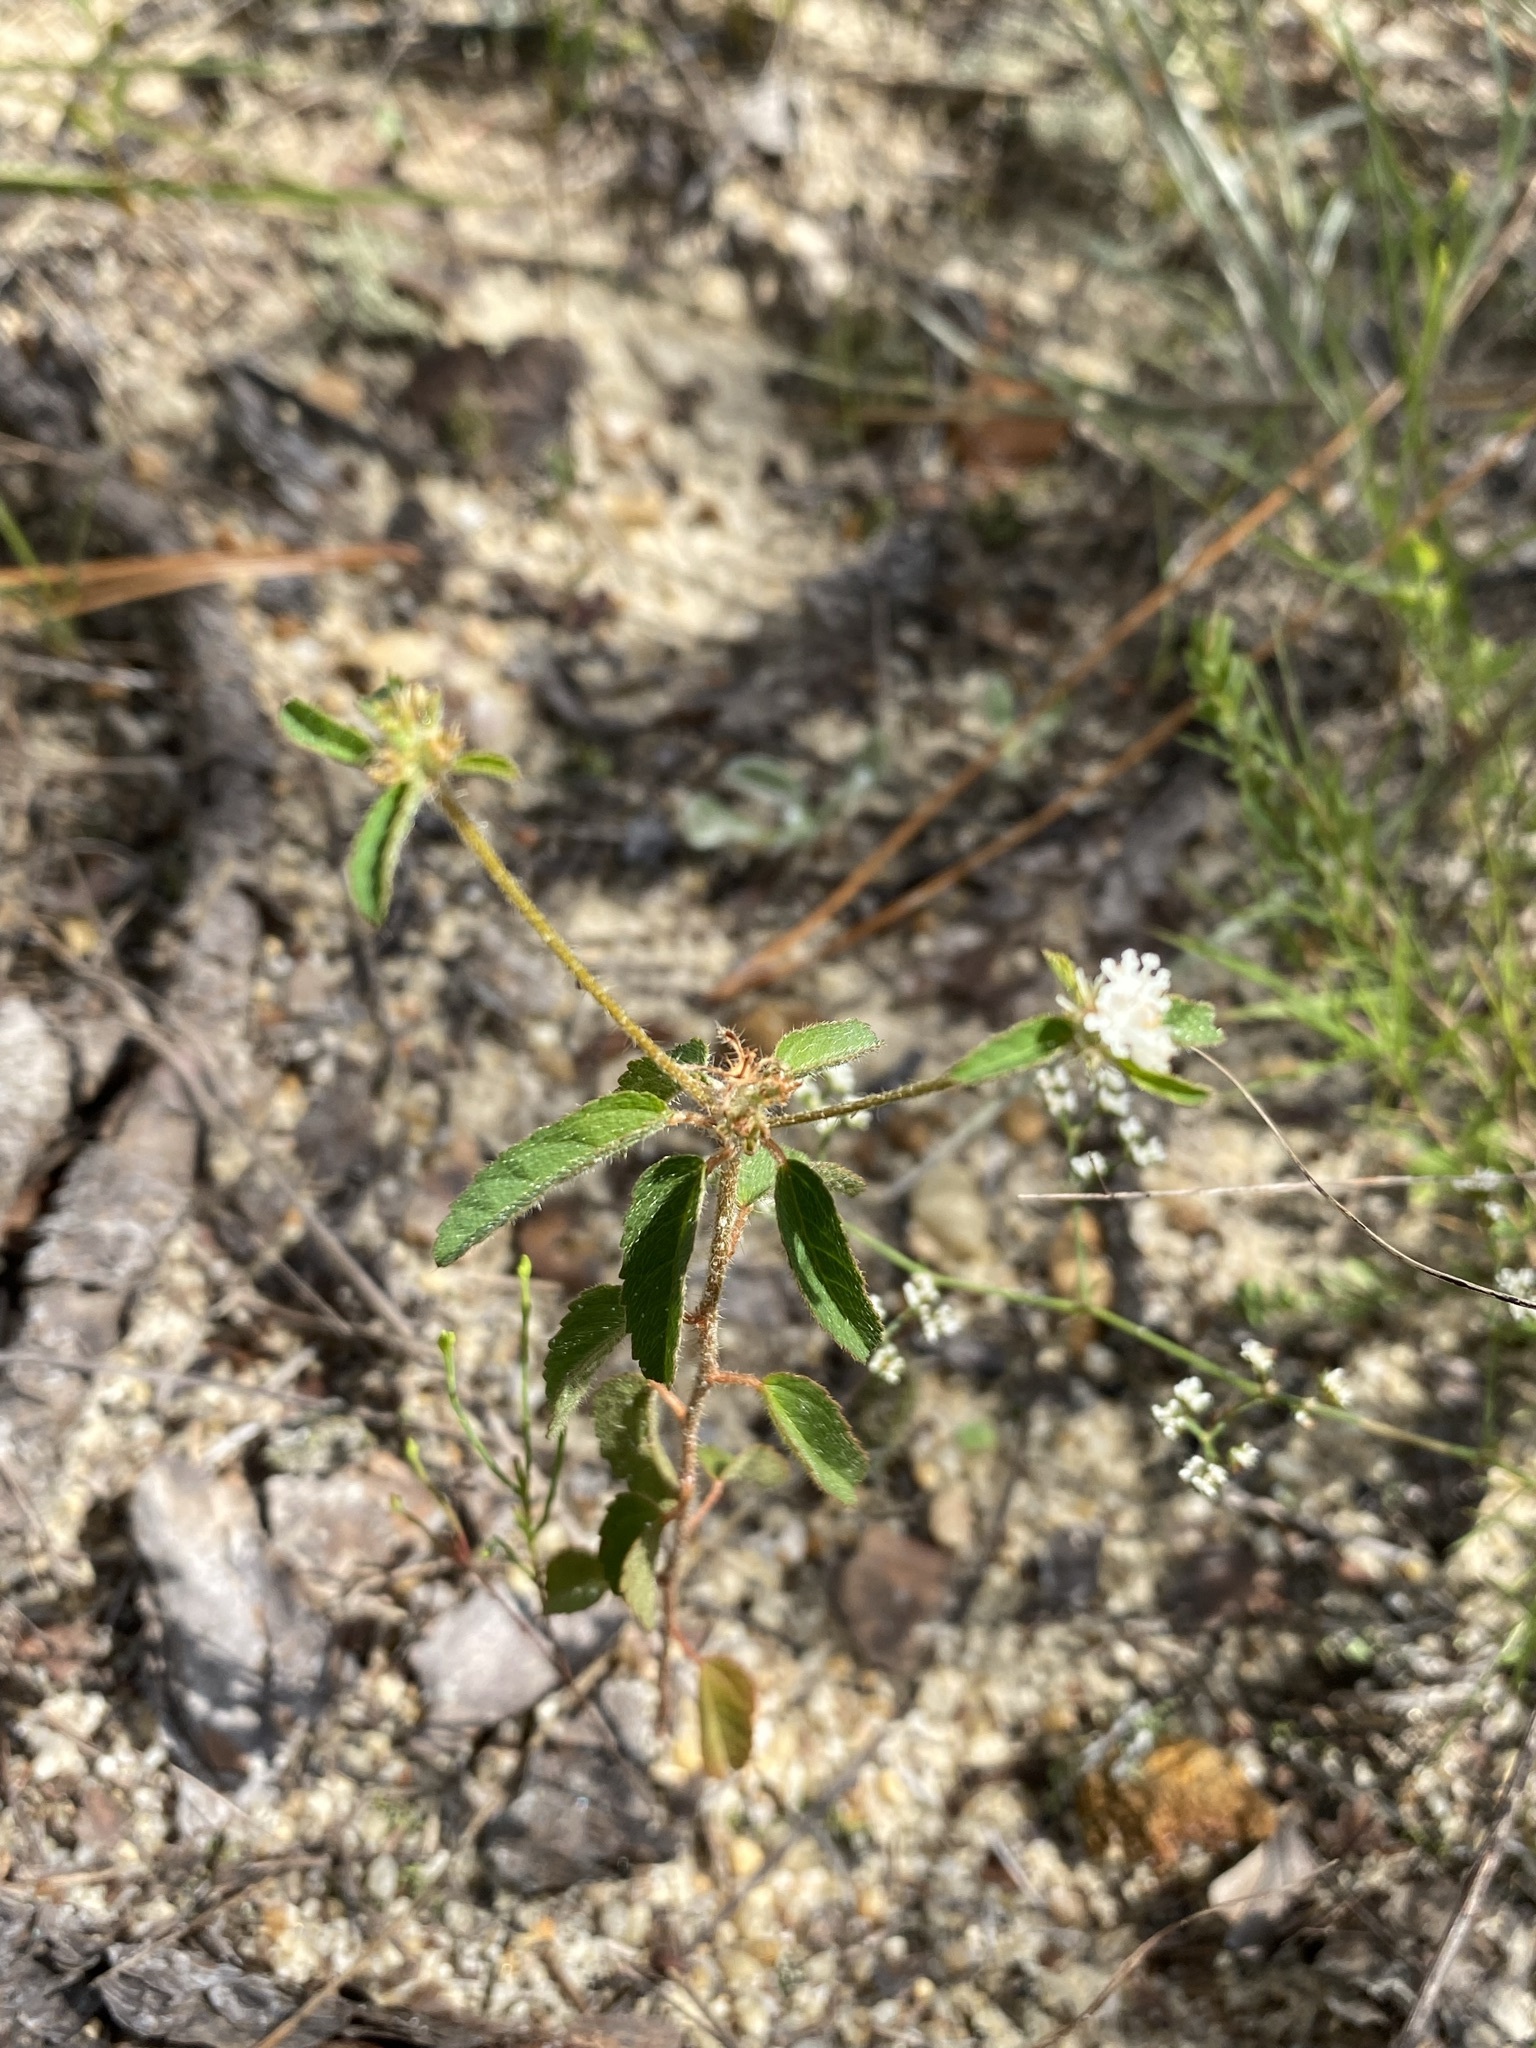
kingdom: Plantae
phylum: Tracheophyta
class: Magnoliopsida
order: Malpighiales
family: Euphorbiaceae
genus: Croton
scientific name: Croton glandulosus
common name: Tropic croton
